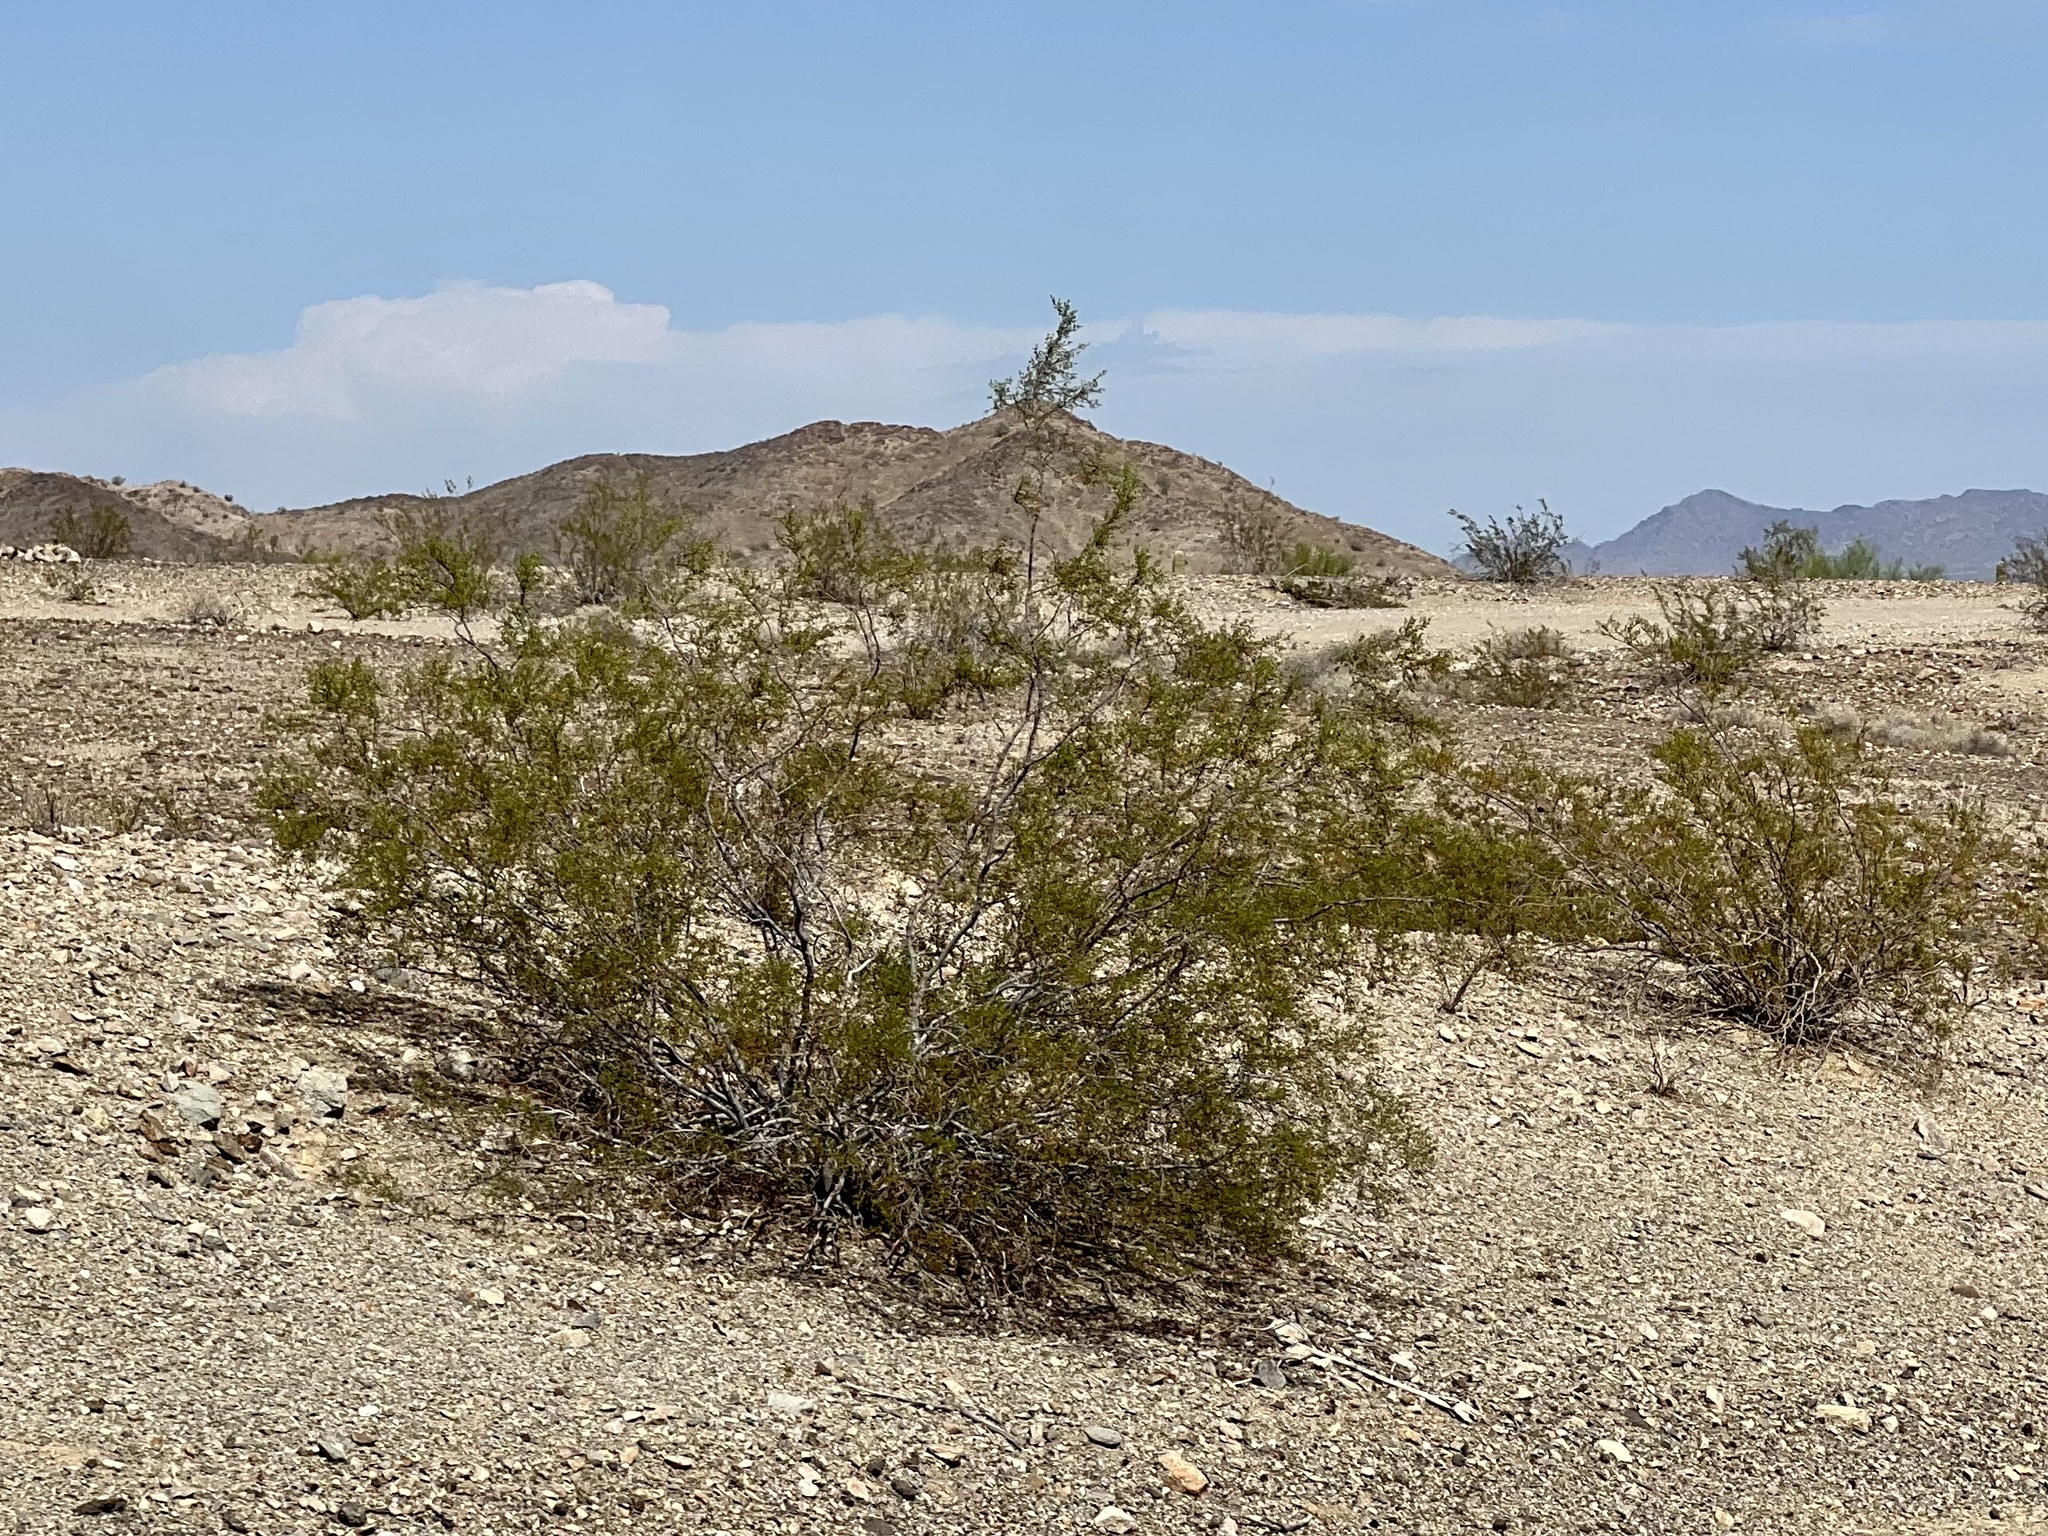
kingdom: Plantae
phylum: Tracheophyta
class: Magnoliopsida
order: Zygophyllales
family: Zygophyllaceae
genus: Larrea
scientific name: Larrea tridentata
